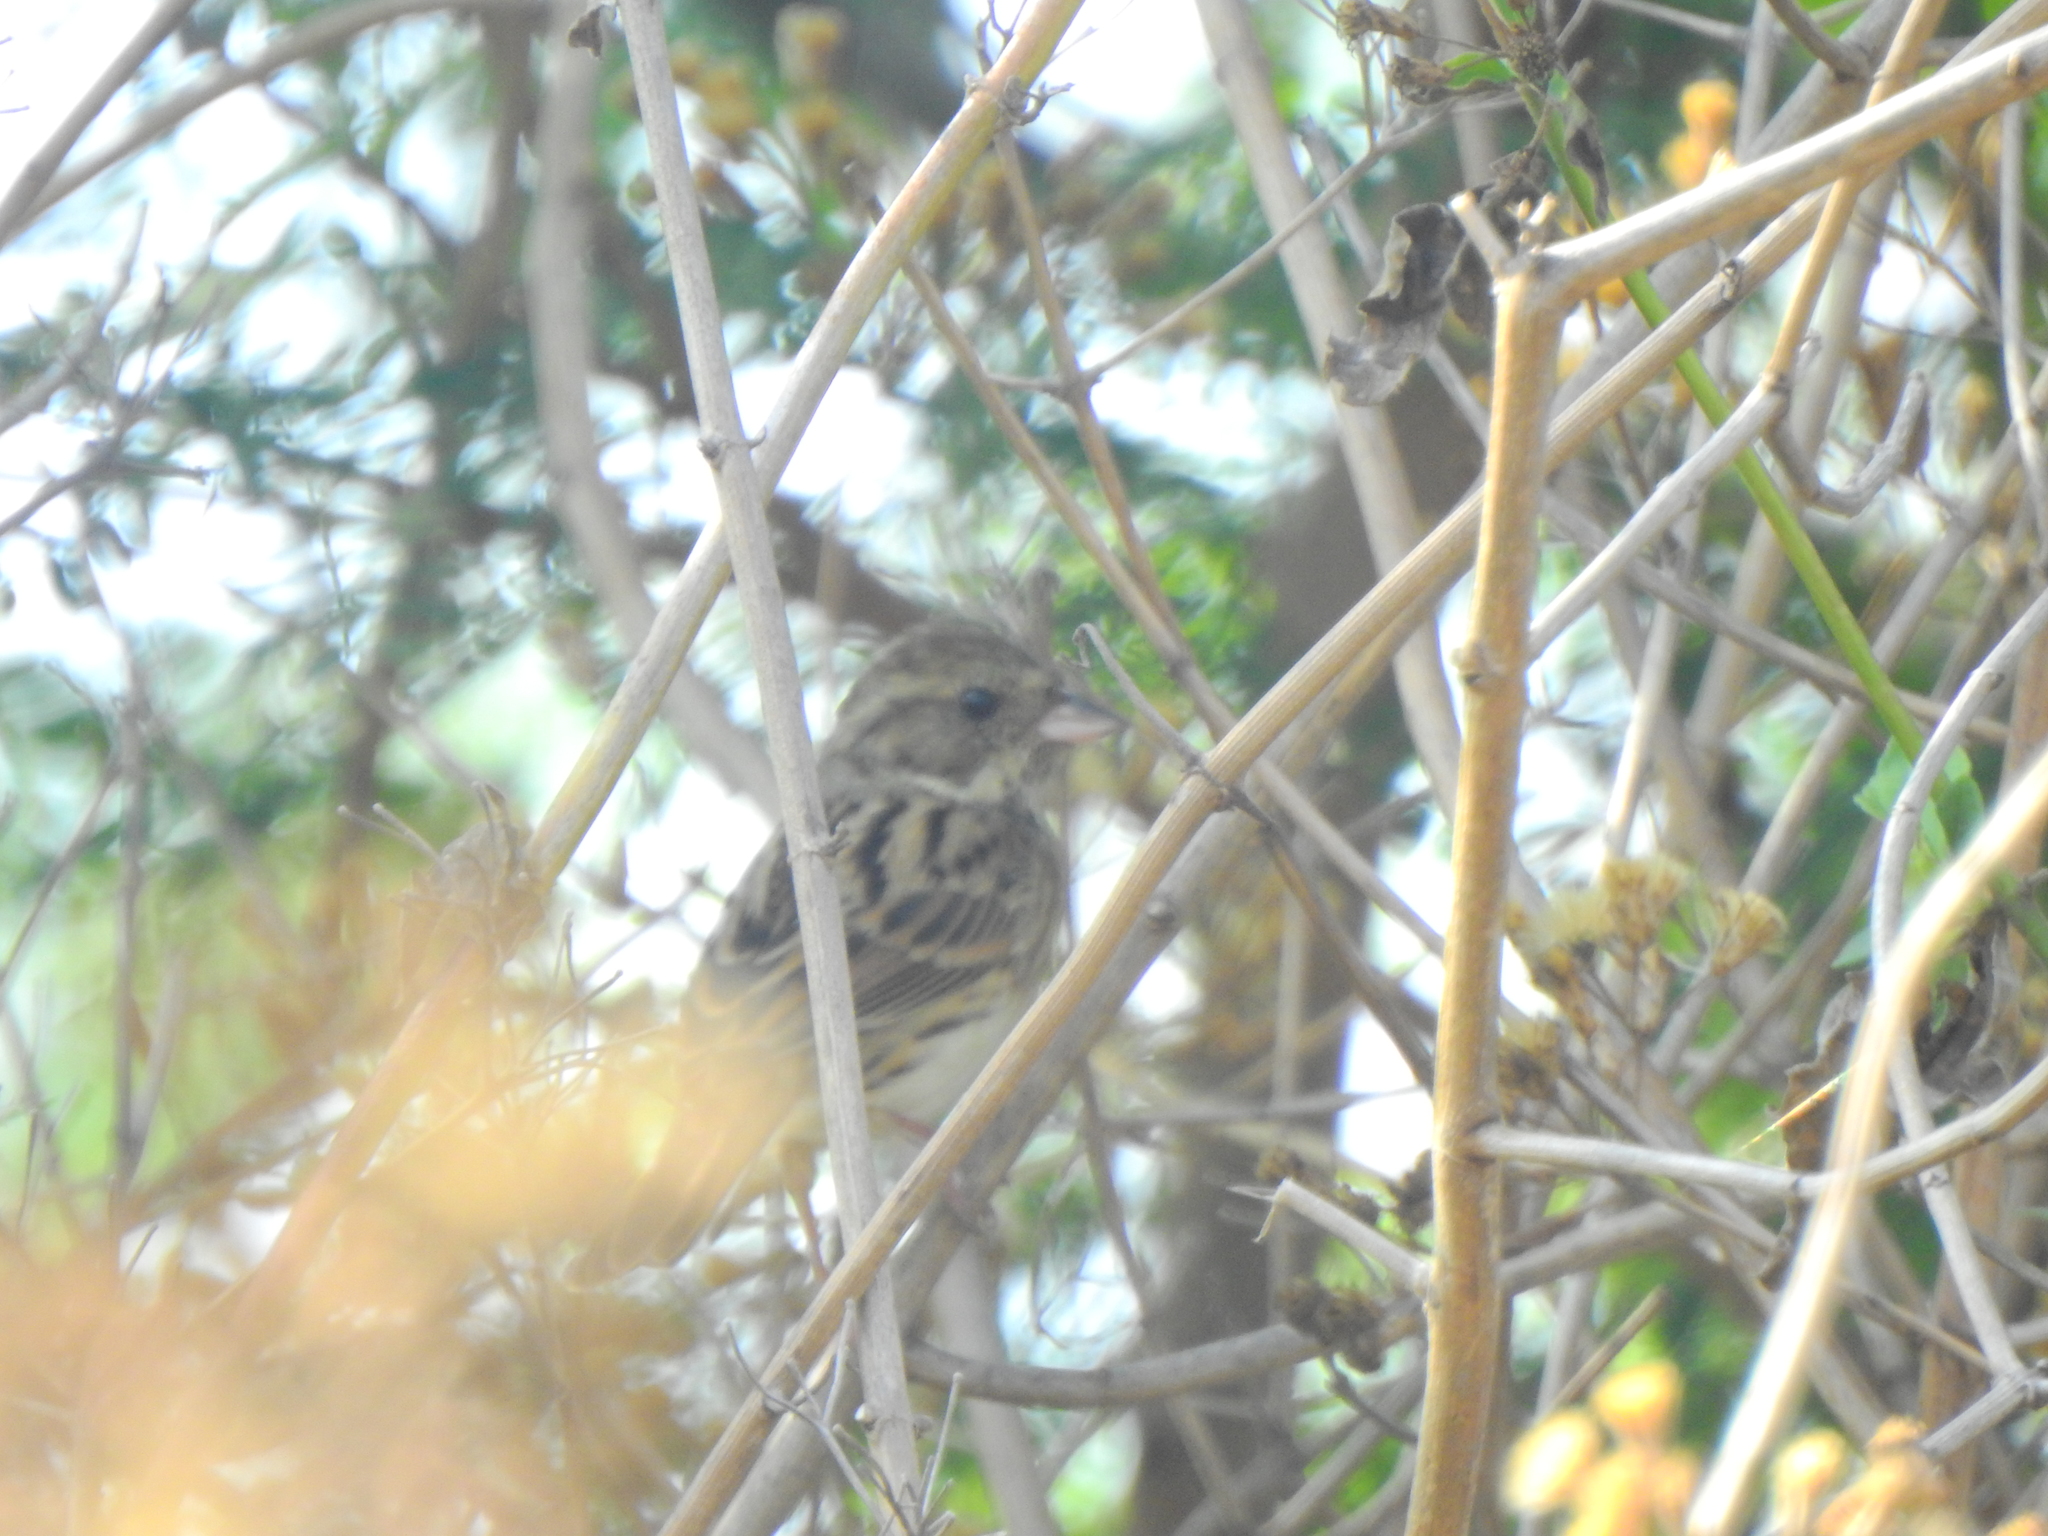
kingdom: Animalia
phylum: Chordata
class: Aves
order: Passeriformes
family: Emberizidae
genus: Emberiza
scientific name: Emberiza spodocephala
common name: Black-faced bunting
